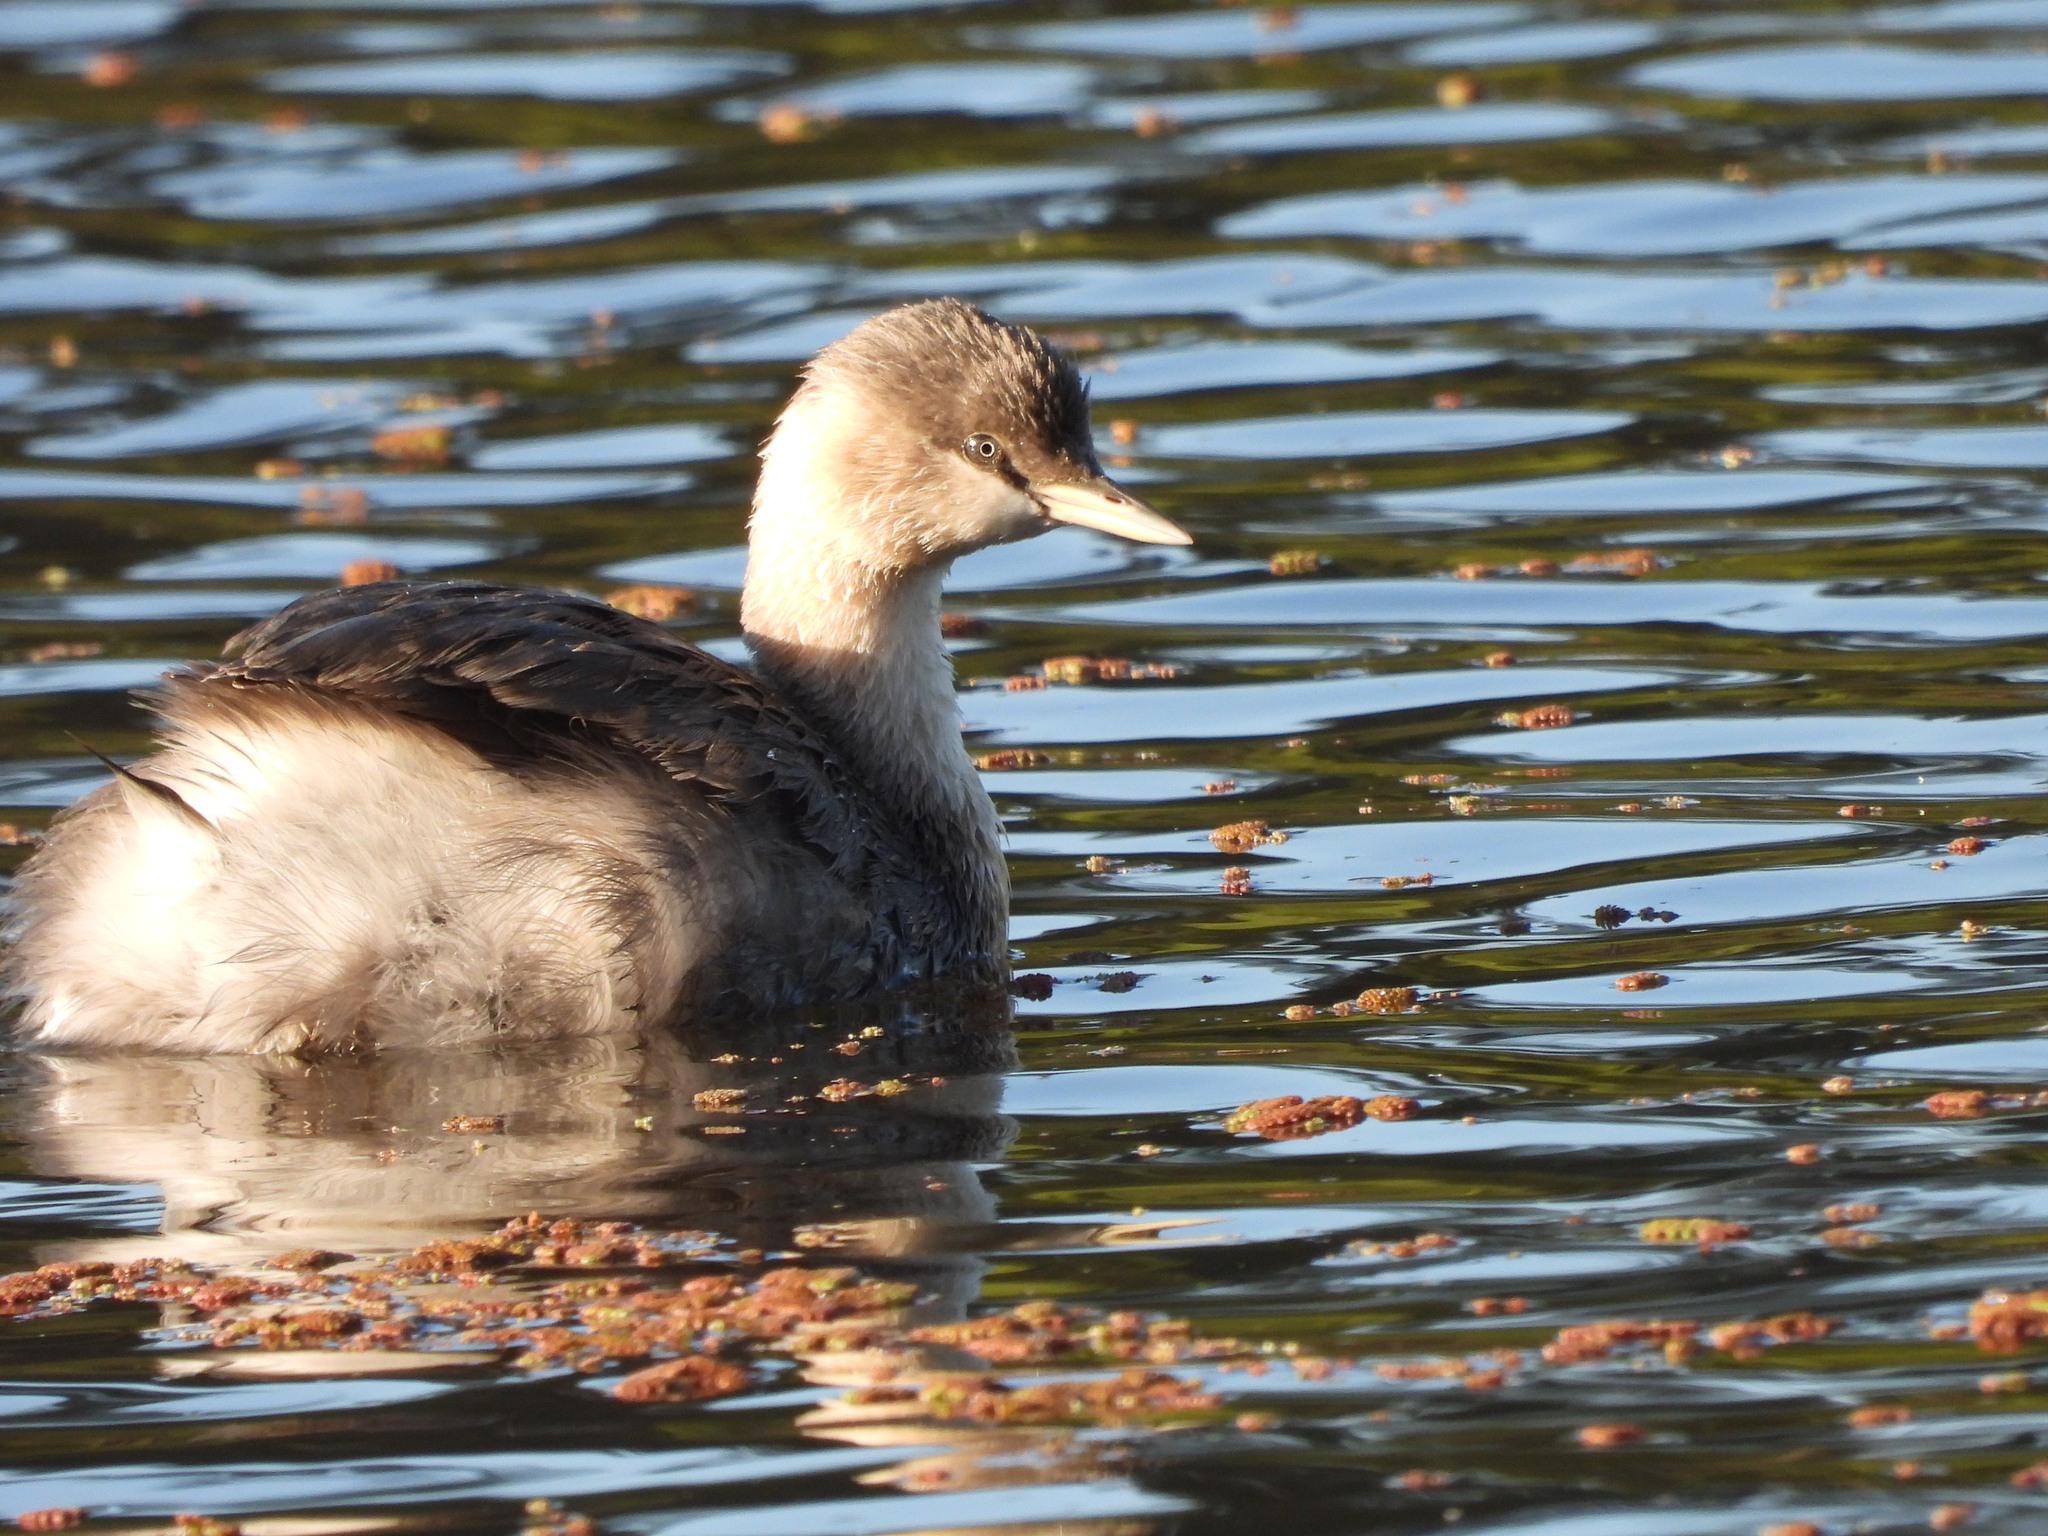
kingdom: Animalia
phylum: Chordata
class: Aves
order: Podicipediformes
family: Podicipedidae
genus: Poliocephalus
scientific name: Poliocephalus poliocephalus
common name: Hoary-headed grebe
